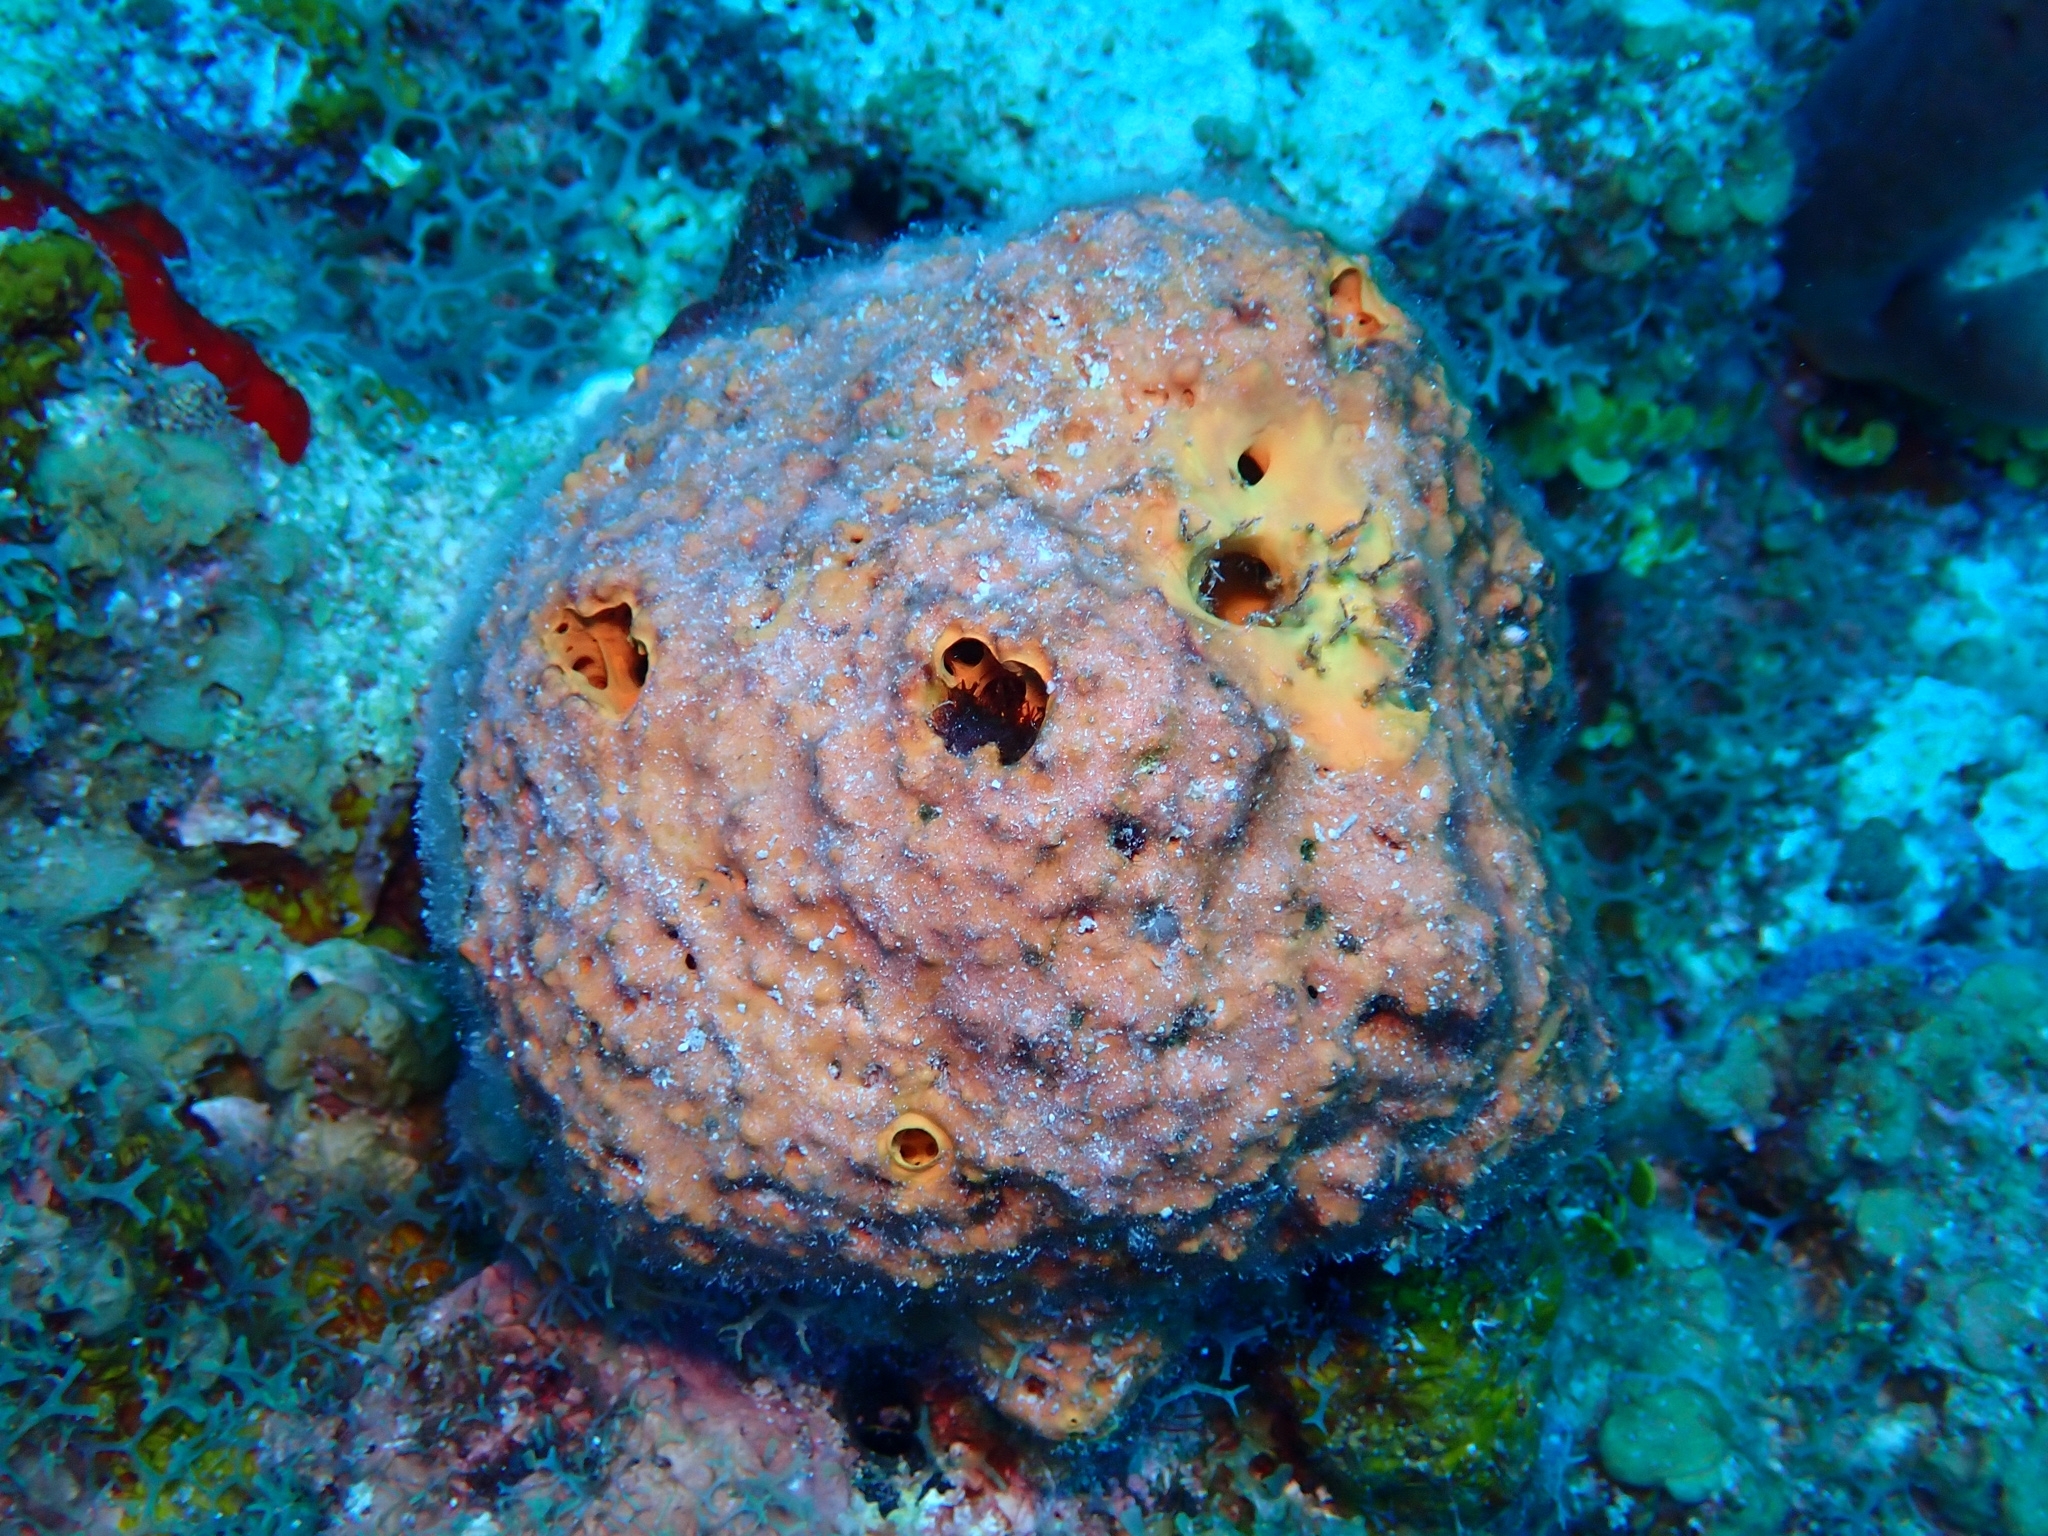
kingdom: Animalia
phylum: Porifera
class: Demospongiae
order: Verongiida
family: Aplysinidae
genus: Aiolochroia
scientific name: Aiolochroia crassa
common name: Branching tube sponge
